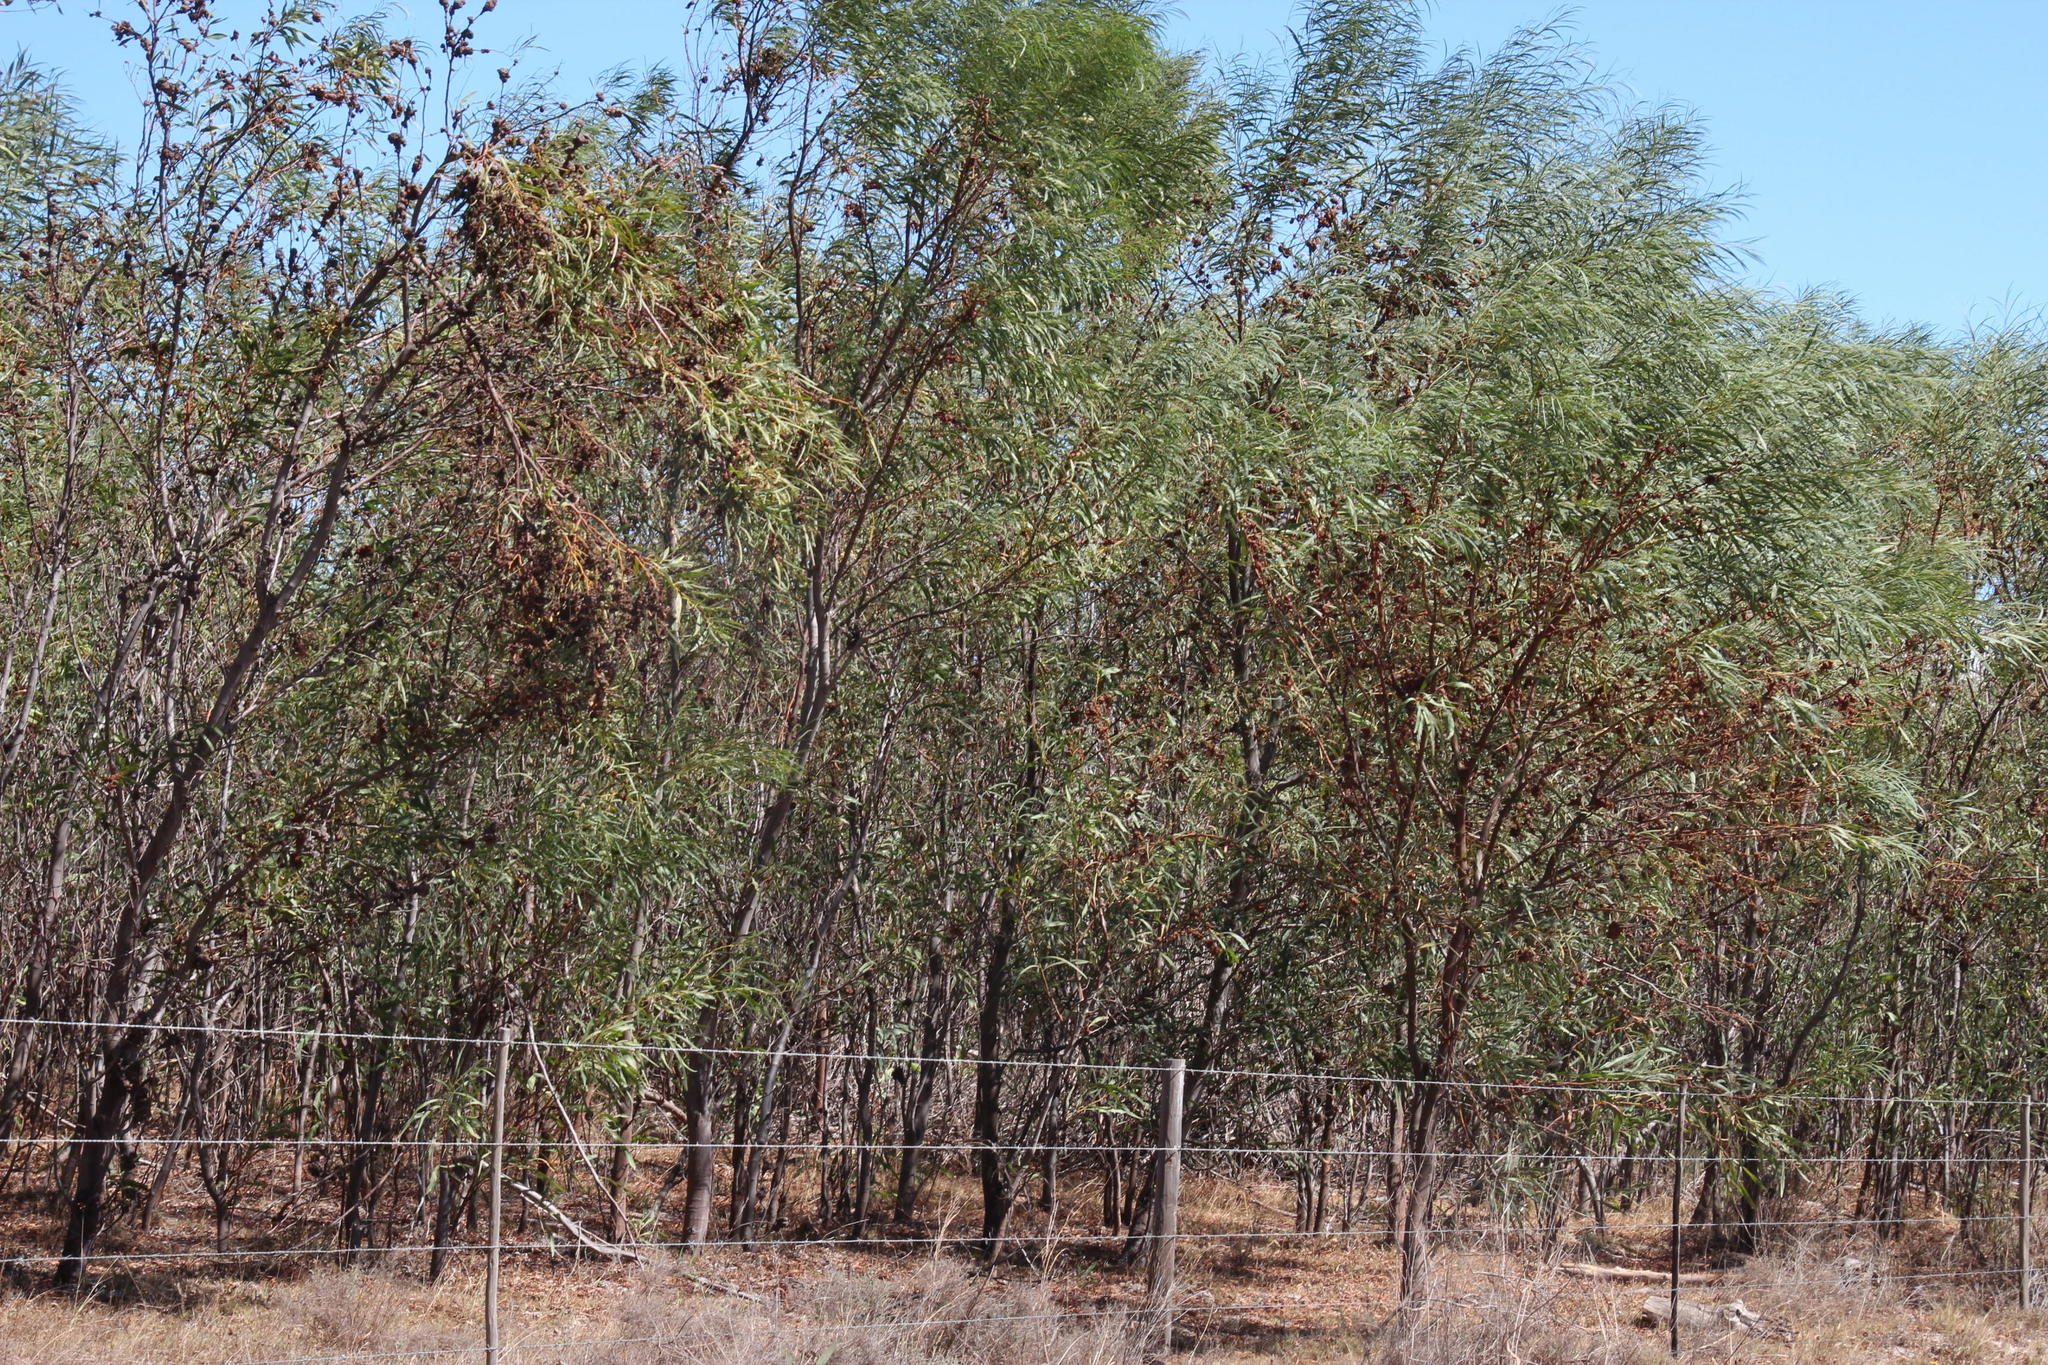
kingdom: Plantae
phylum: Tracheophyta
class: Magnoliopsida
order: Fabales
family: Fabaceae
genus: Acacia
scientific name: Acacia saligna
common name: Orange wattle
